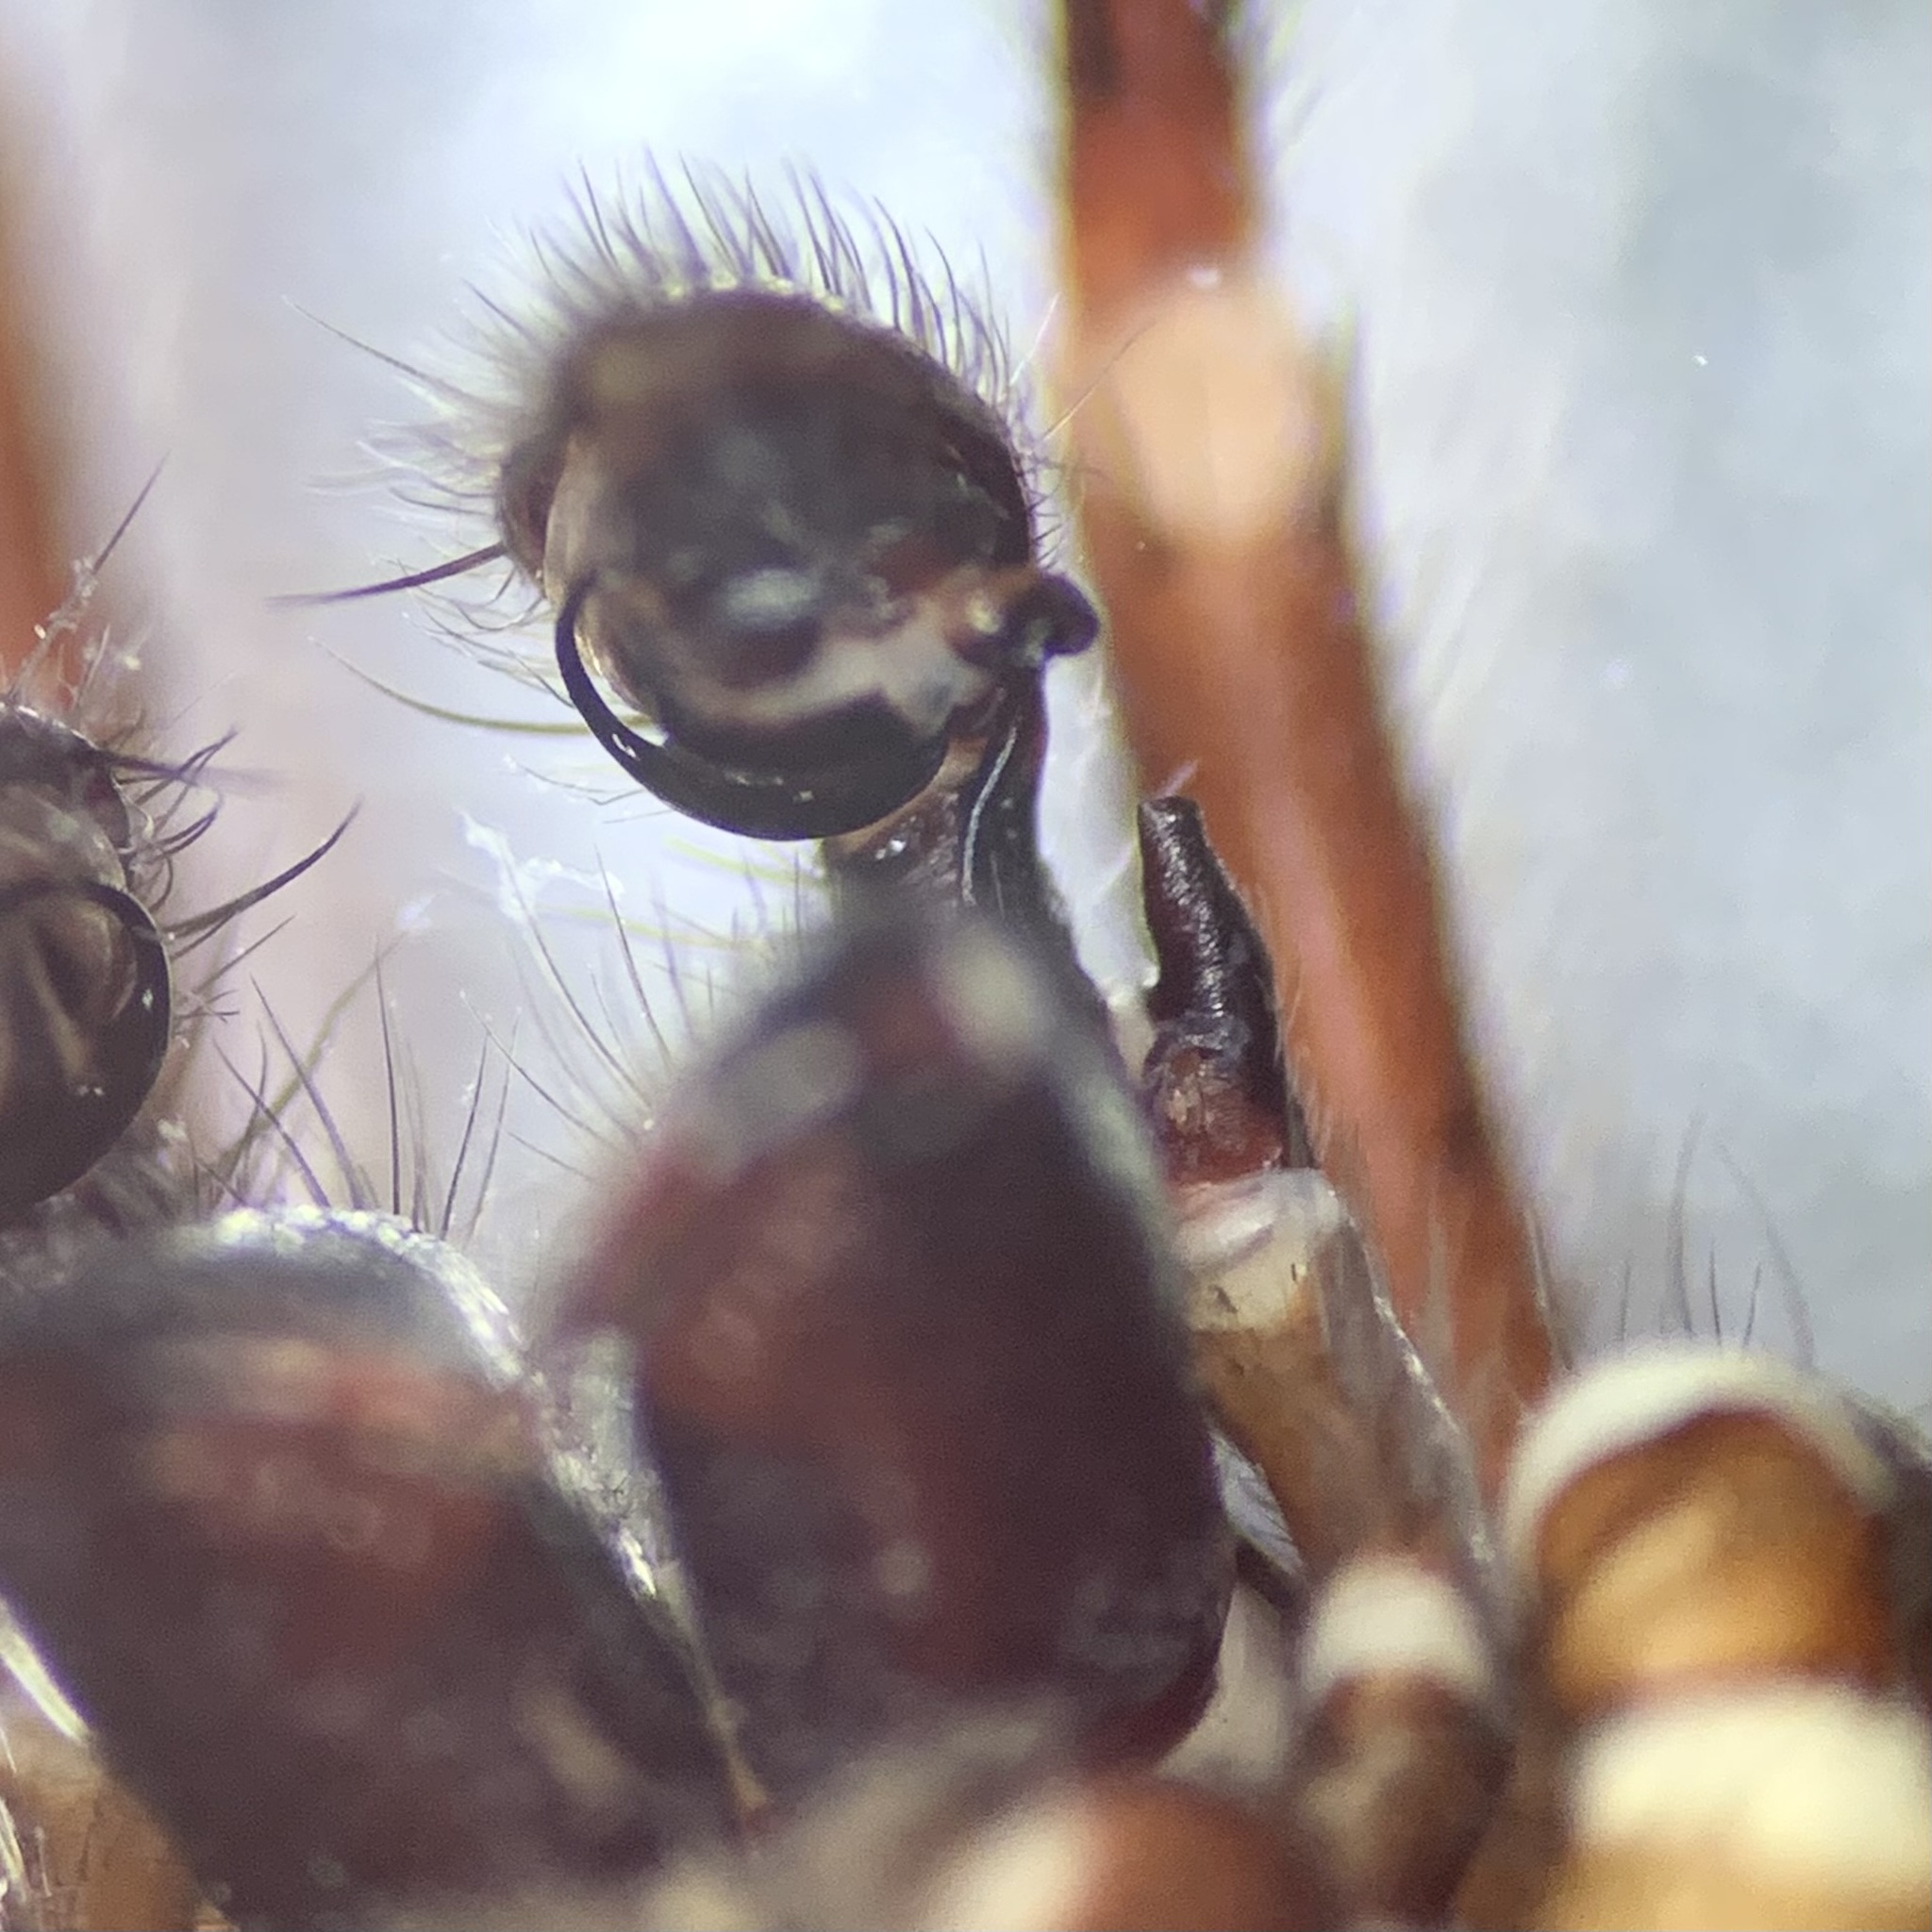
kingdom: Animalia
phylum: Arthropoda
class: Arachnida
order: Araneae
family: Agelenidae
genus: Coelotes
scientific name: Coelotes atropos
